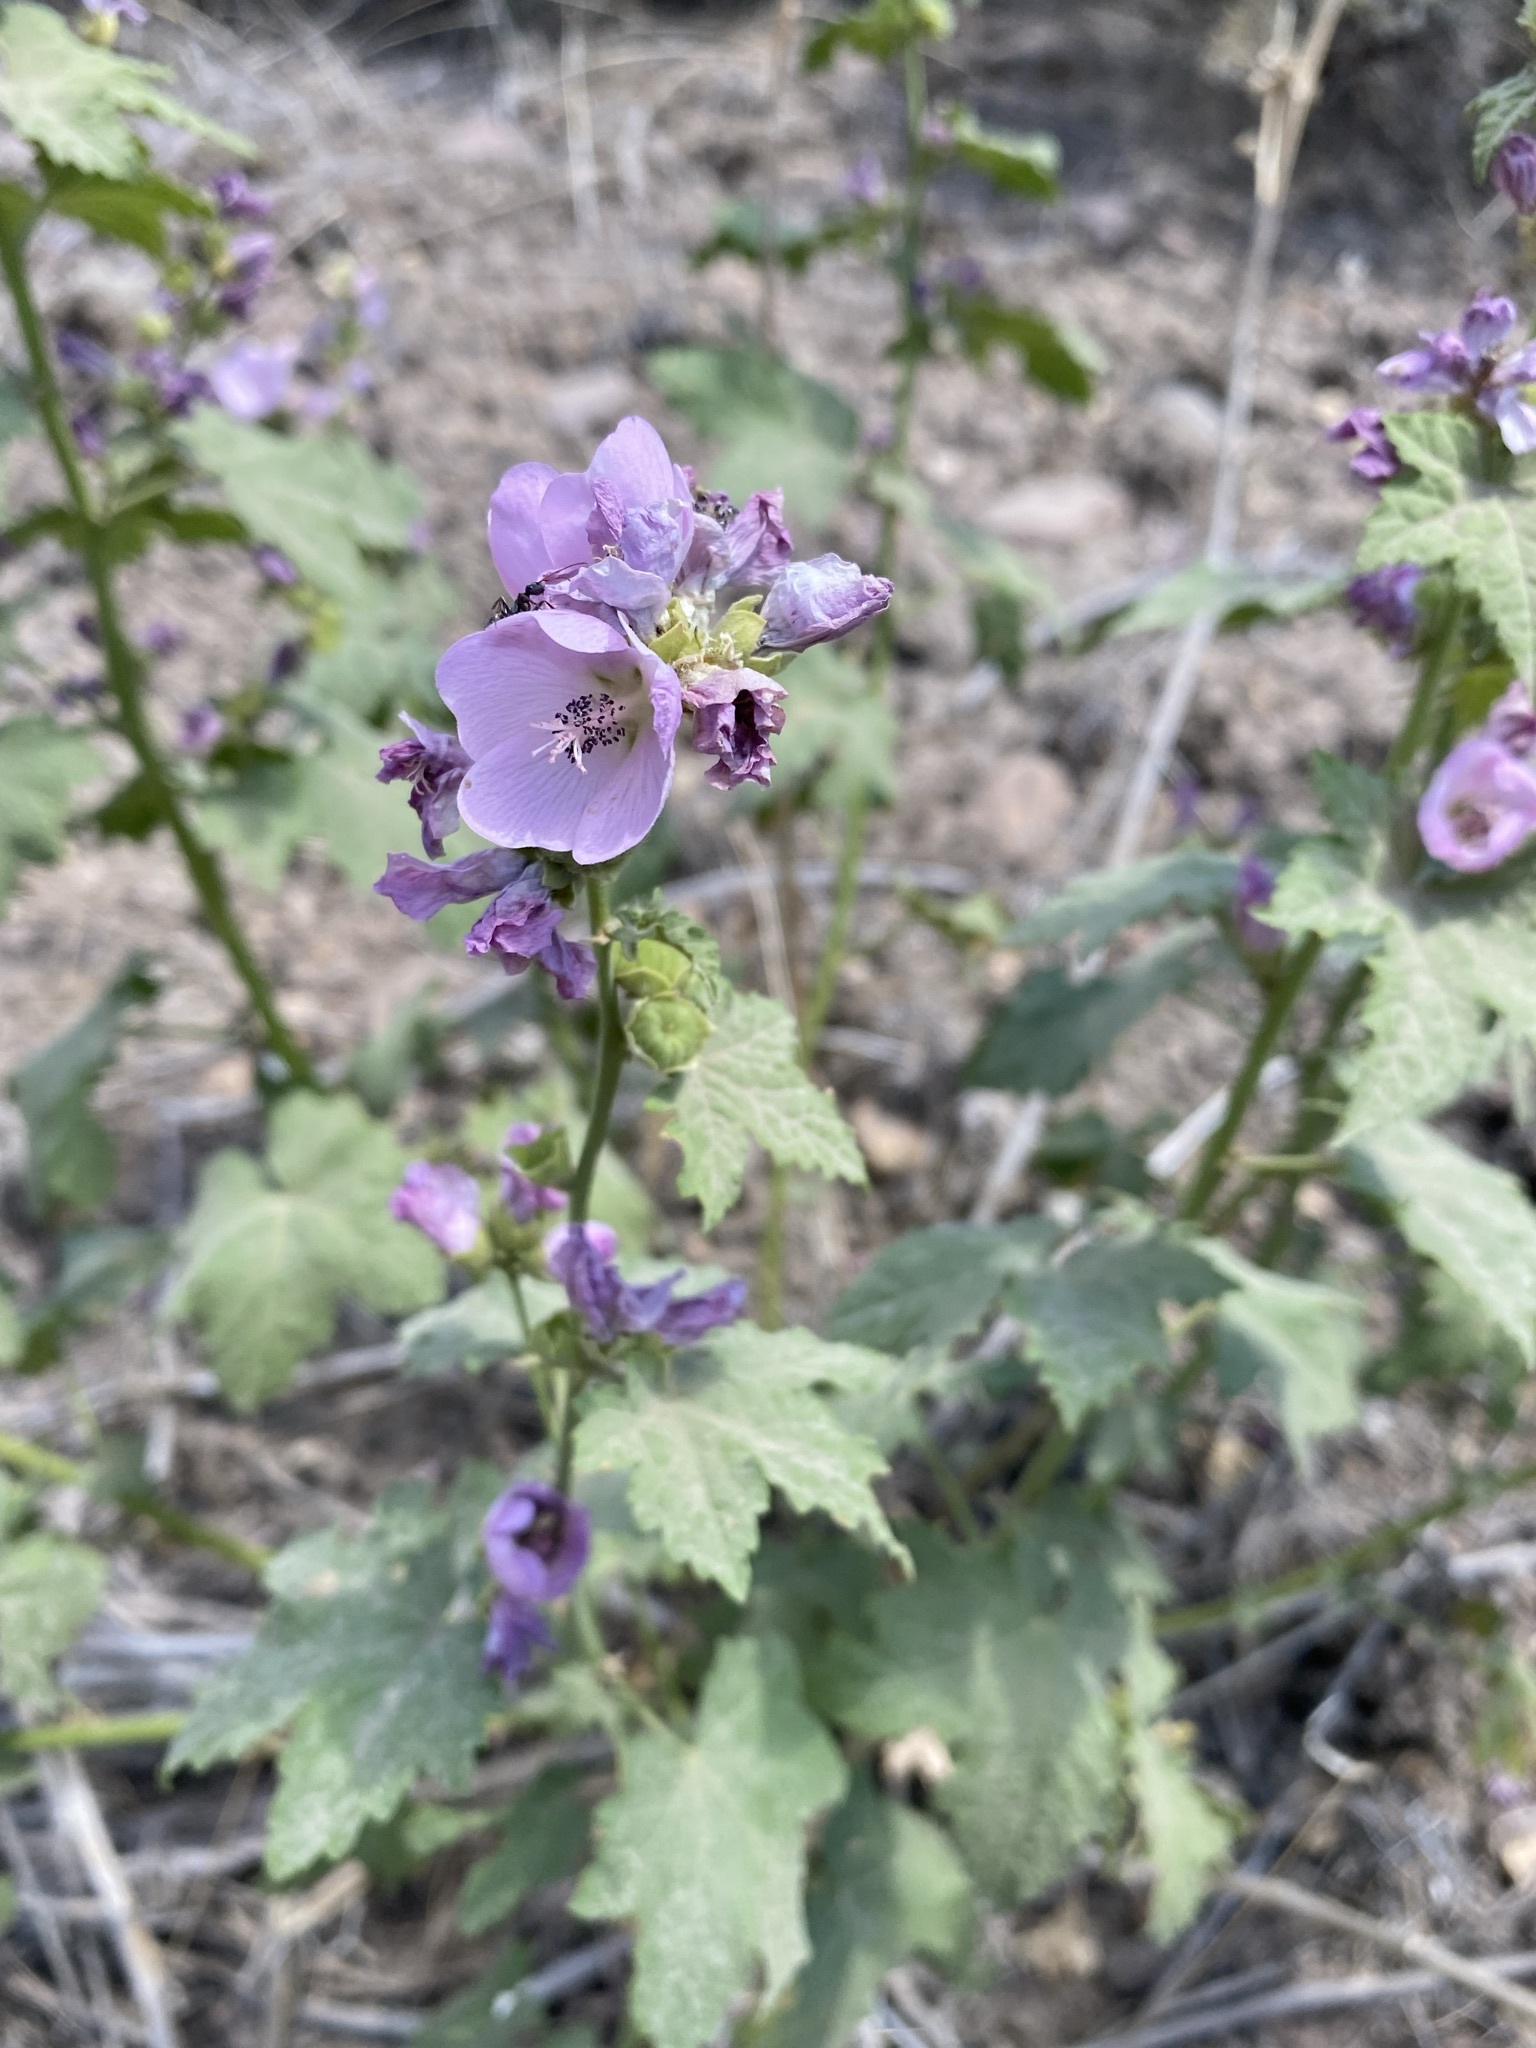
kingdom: Plantae
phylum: Tracheophyta
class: Magnoliopsida
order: Malvales
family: Malvaceae
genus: Iliamna
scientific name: Iliamna rivularis
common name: Wild hollyhock
